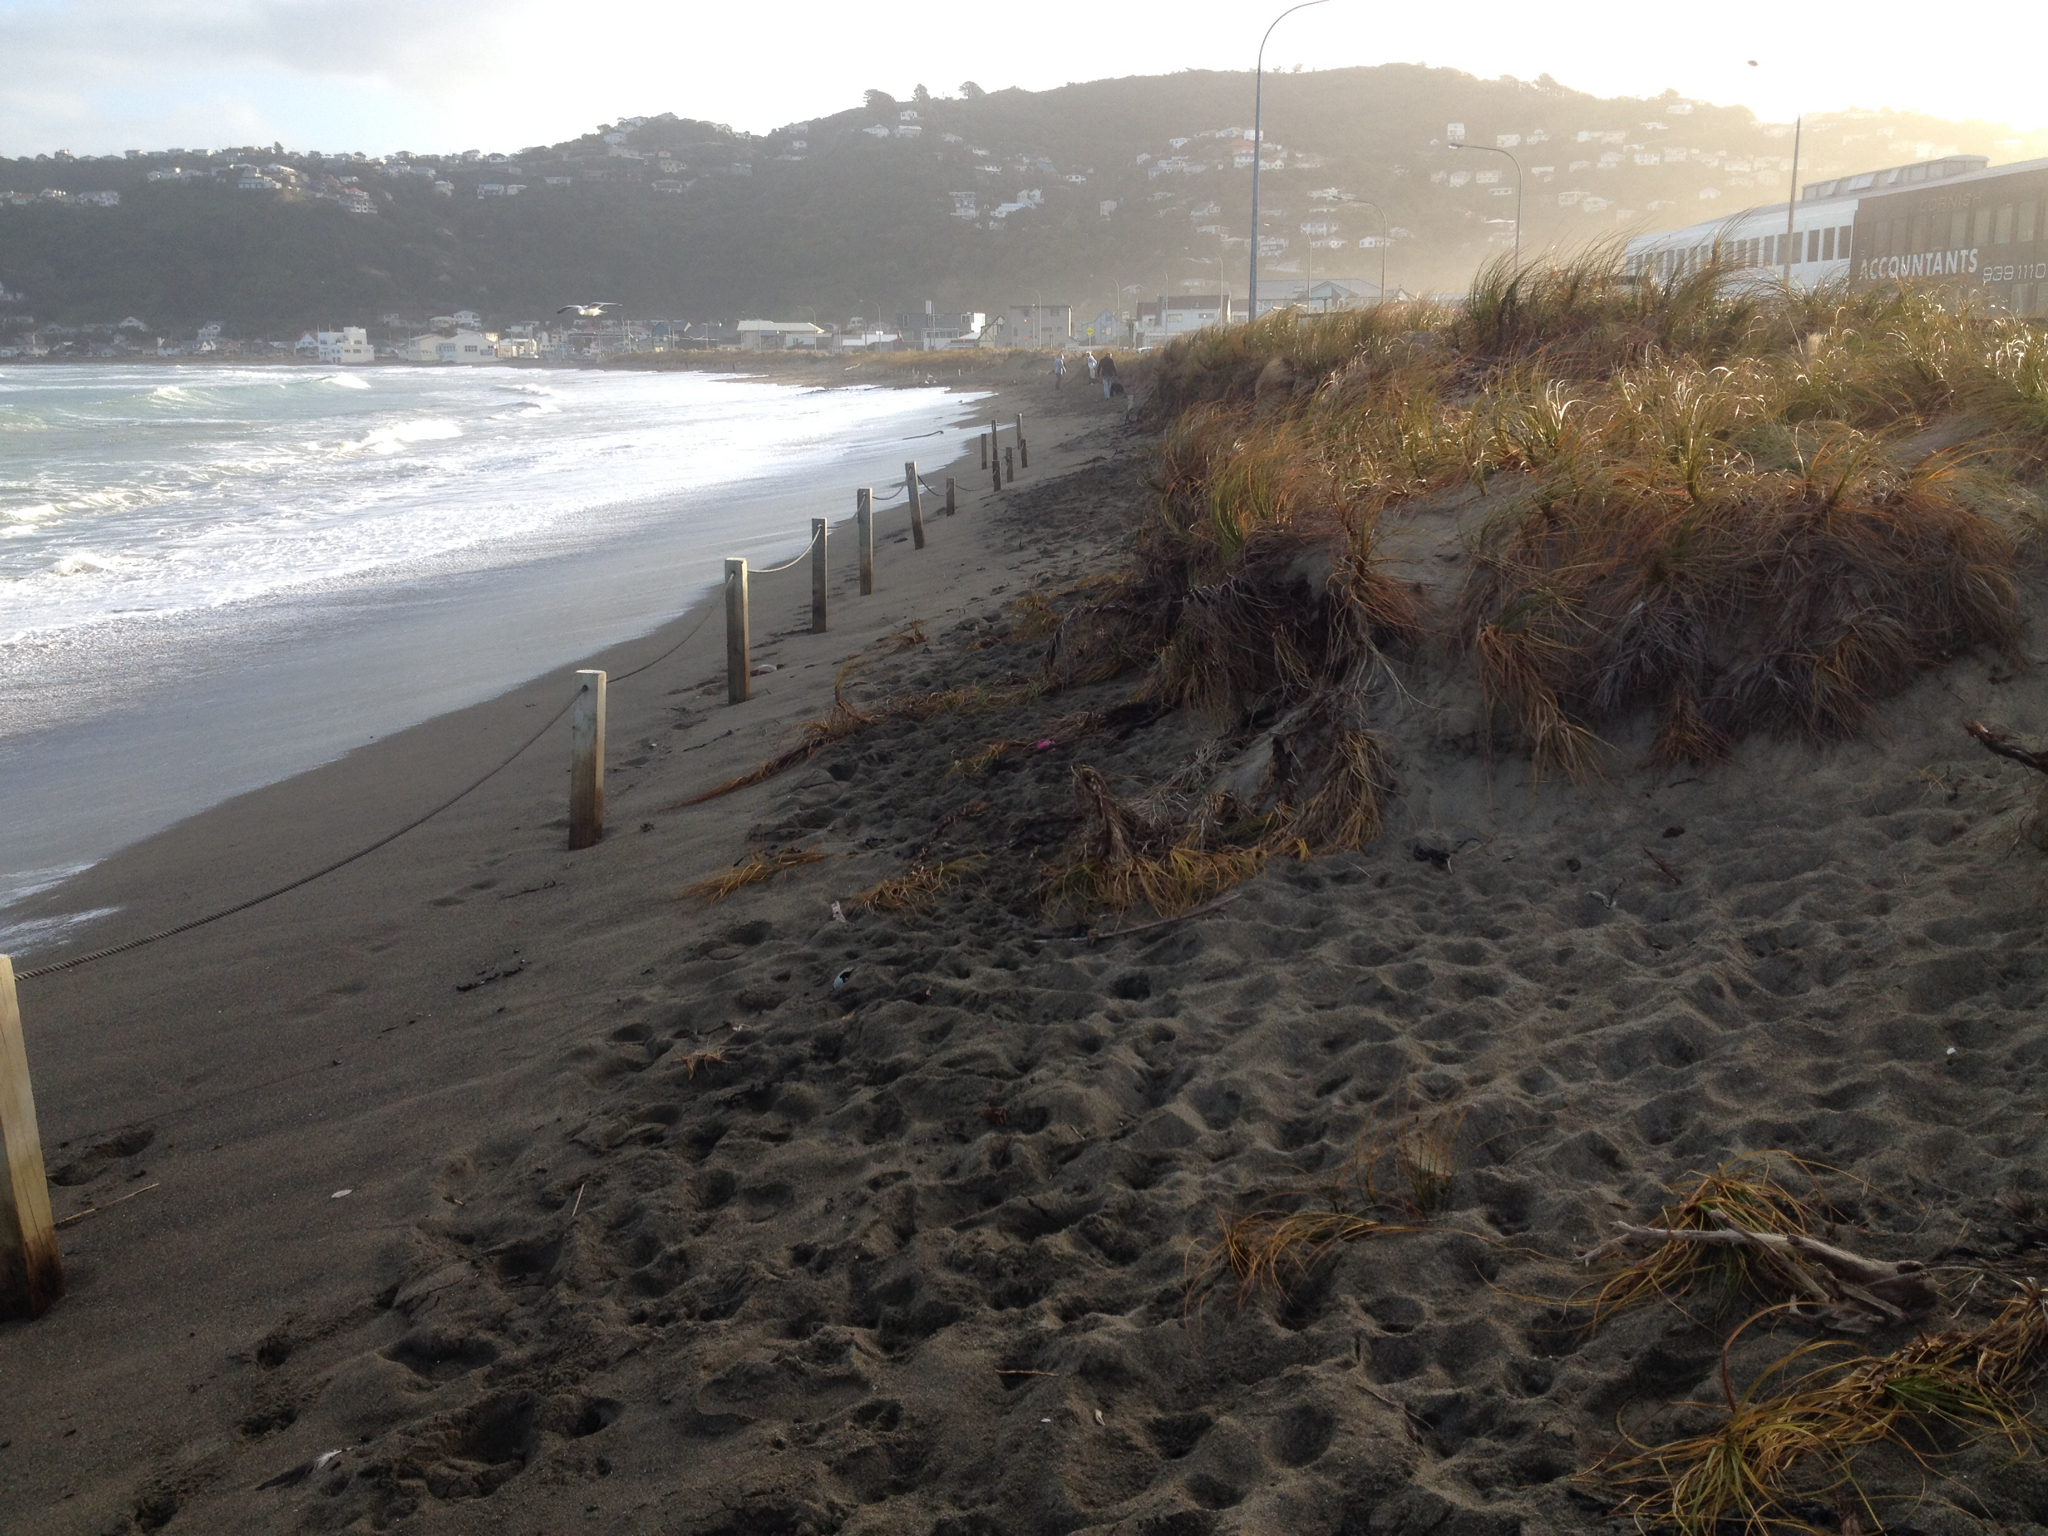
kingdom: Plantae
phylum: Tracheophyta
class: Liliopsida
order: Poales
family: Cyperaceae
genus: Ficinia
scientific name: Ficinia spiralis
